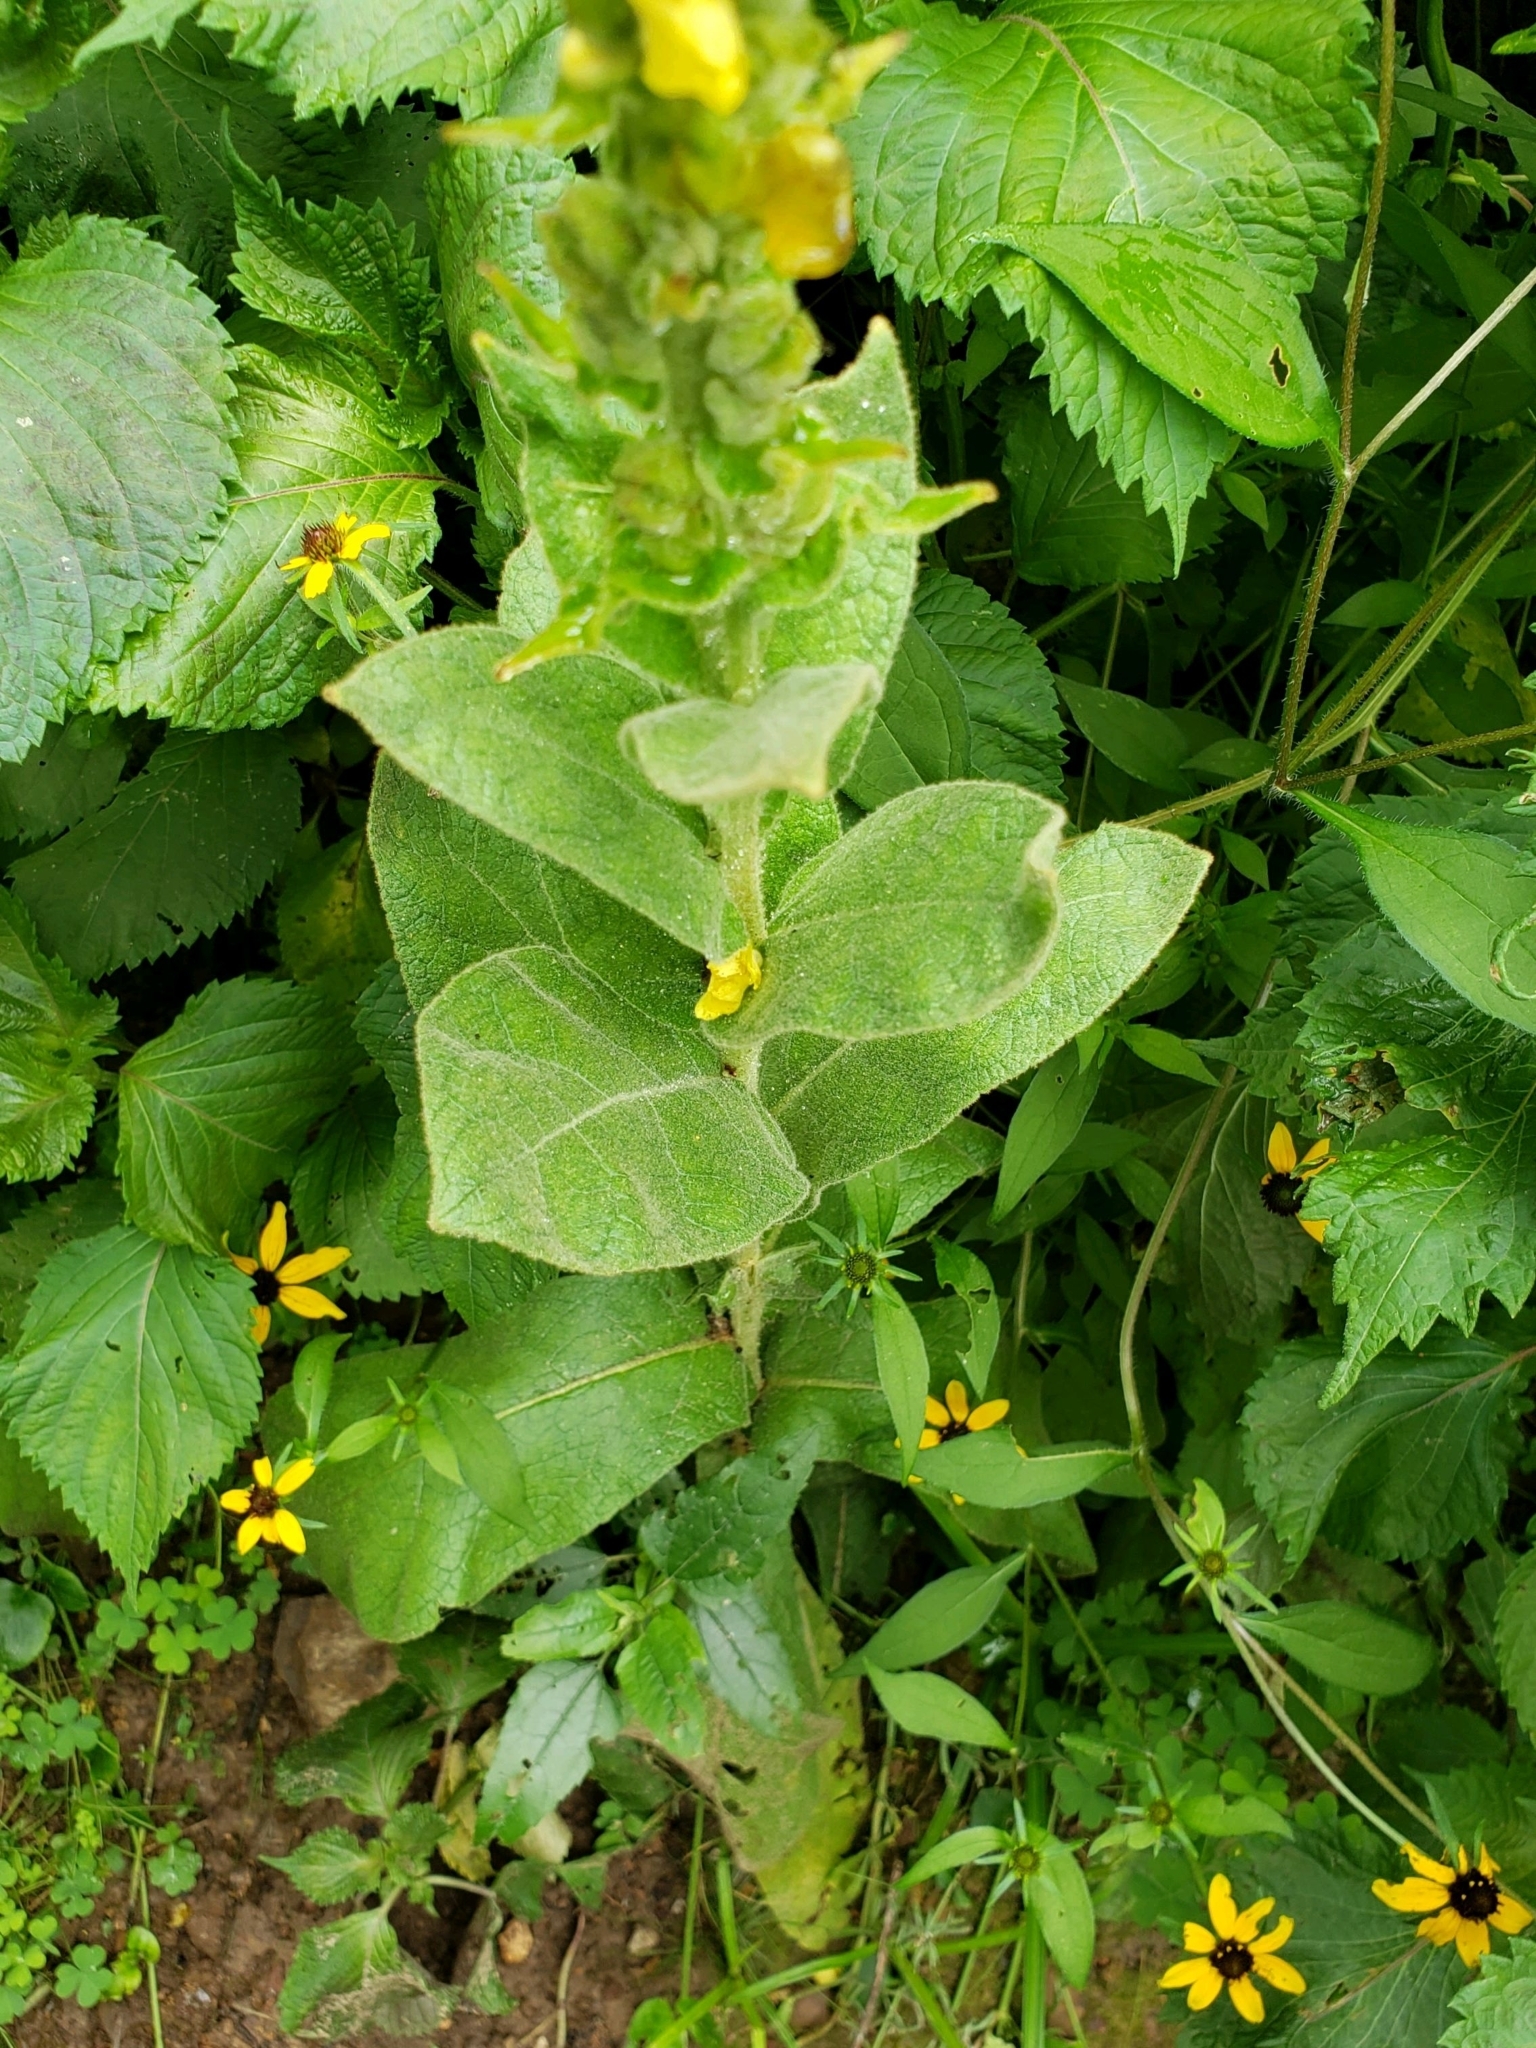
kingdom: Plantae
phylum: Tracheophyta
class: Magnoliopsida
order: Lamiales
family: Scrophulariaceae
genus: Verbascum
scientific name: Verbascum phlomoides
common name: Orange mullein
